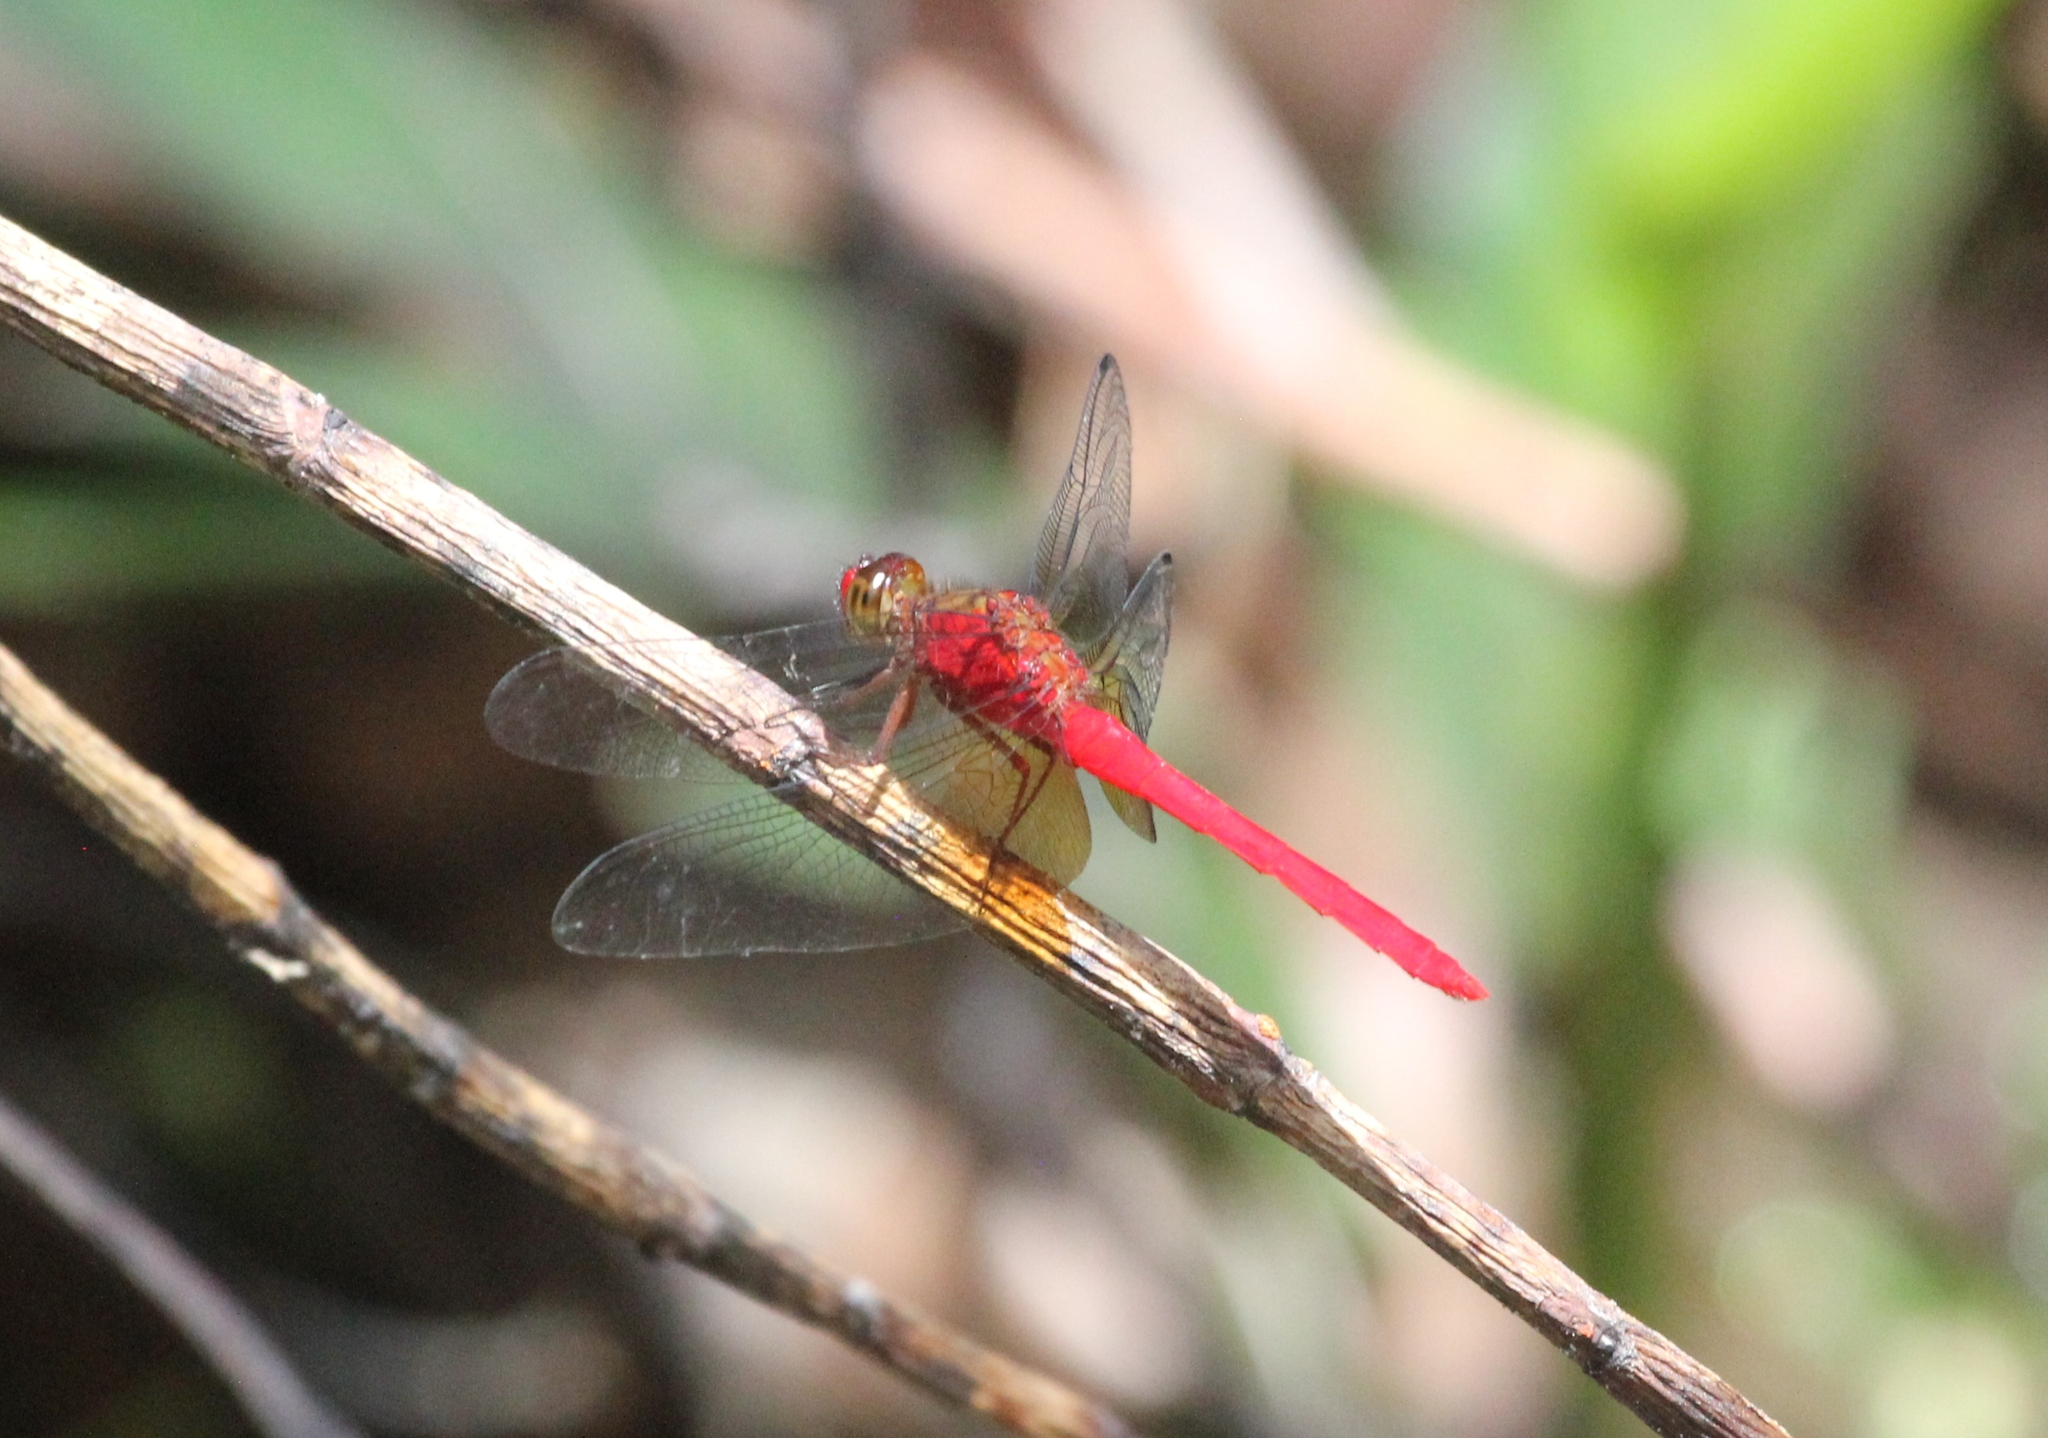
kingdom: Animalia
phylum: Arthropoda
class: Insecta
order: Odonata
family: Libellulidae
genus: Rhodopygia
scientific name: Rhodopygia cardinalis
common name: Cardinal redskimmer
